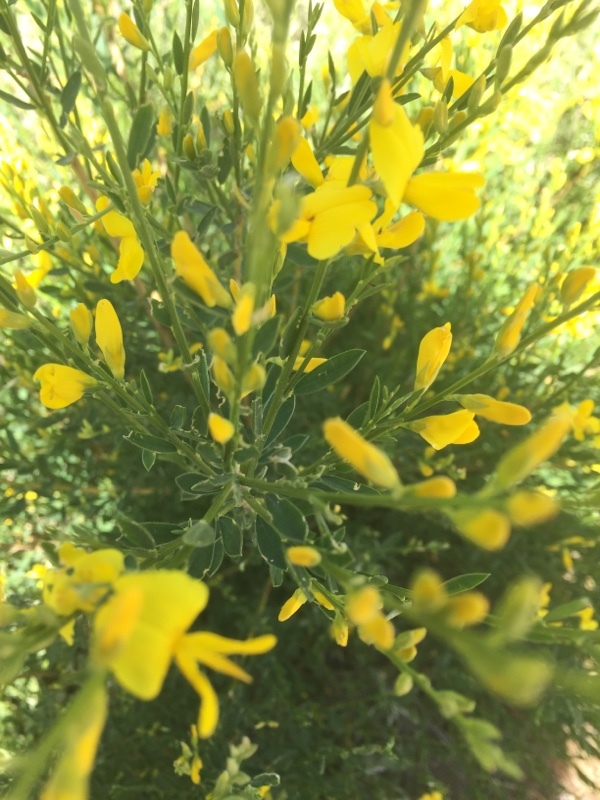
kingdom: Plantae
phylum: Tracheophyta
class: Magnoliopsida
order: Fabales
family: Fabaceae
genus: Genista
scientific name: Genista florida
